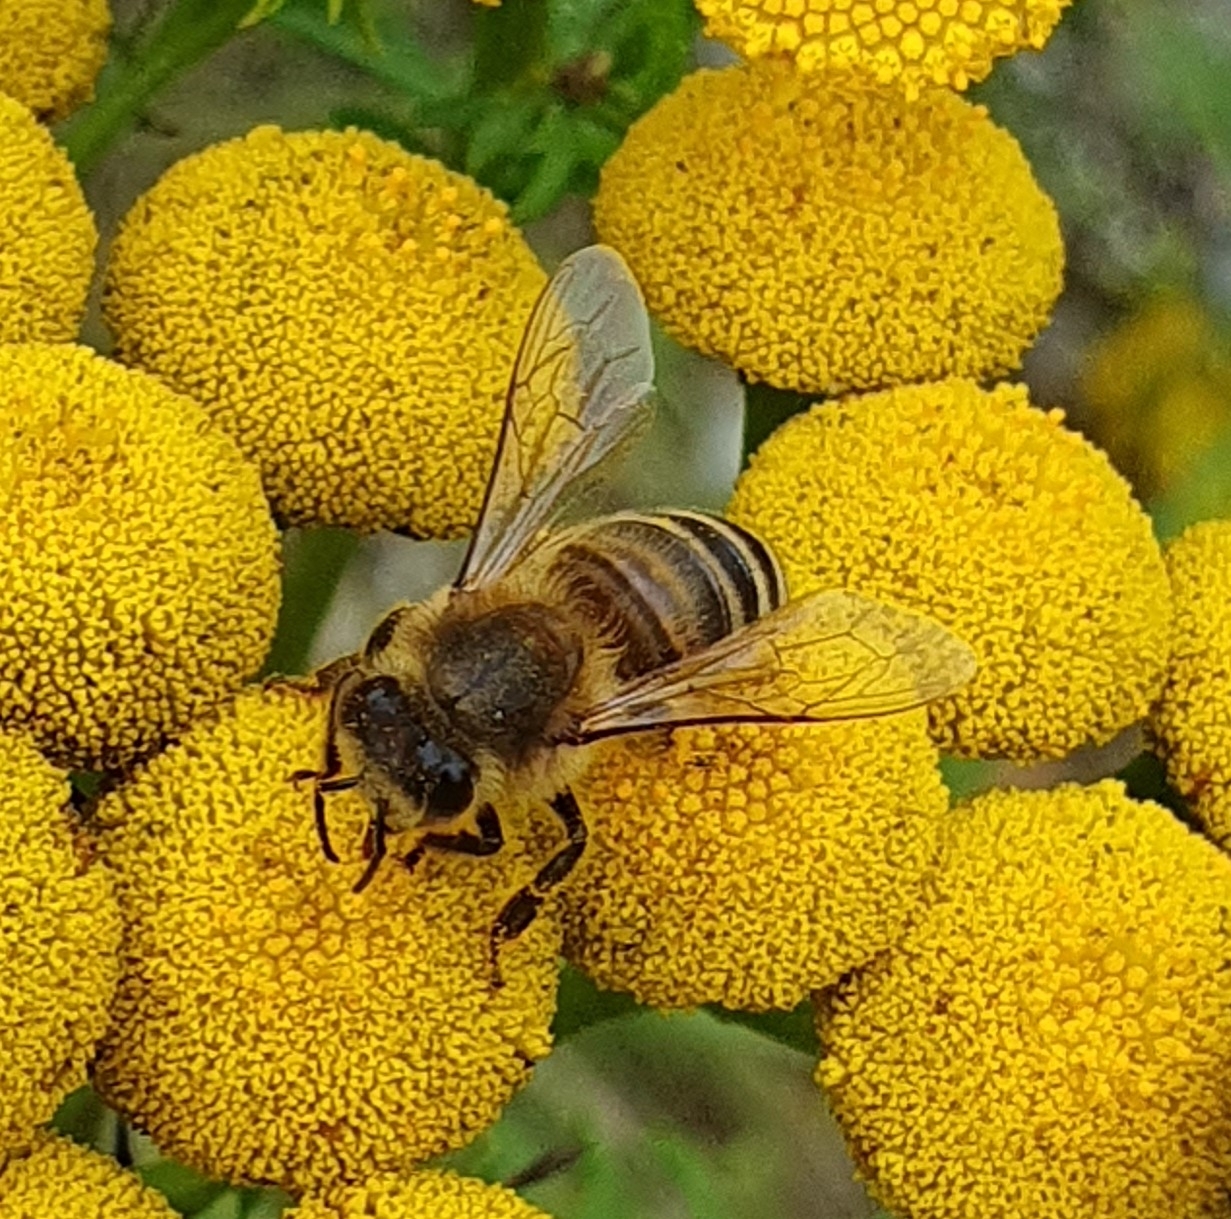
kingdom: Animalia
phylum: Arthropoda
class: Insecta
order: Hymenoptera
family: Apidae
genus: Apis
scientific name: Apis mellifera
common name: Honey bee
